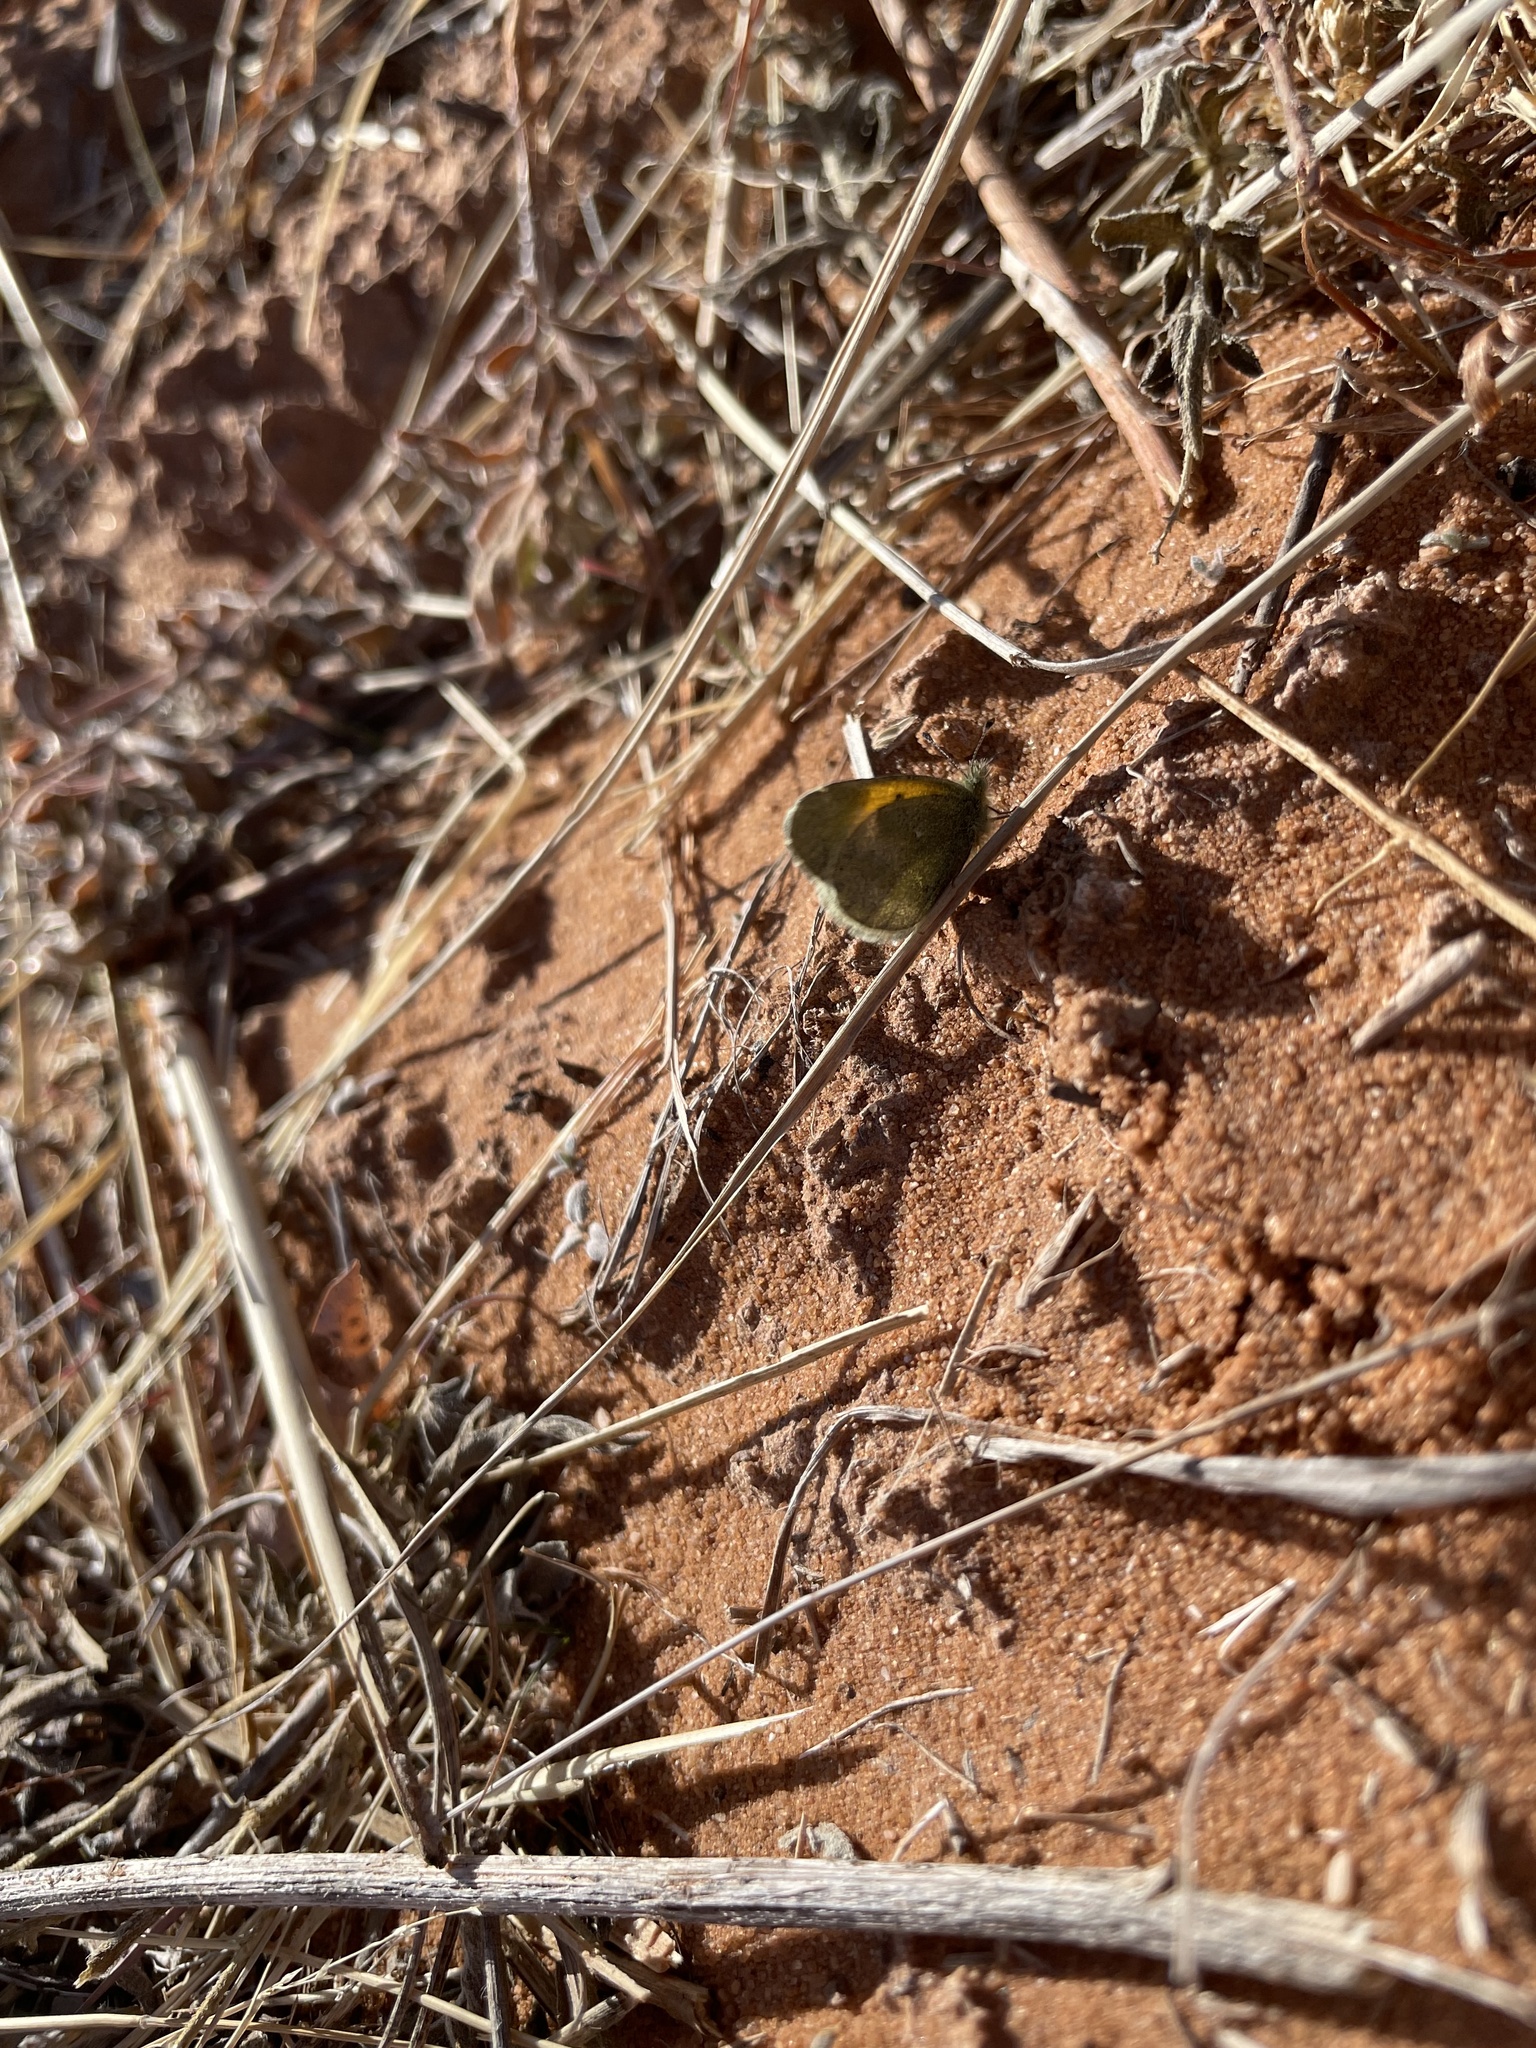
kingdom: Animalia
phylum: Arthropoda
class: Insecta
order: Lepidoptera
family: Pieridae
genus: Nathalis
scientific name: Nathalis iole
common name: Dainty sulphur
